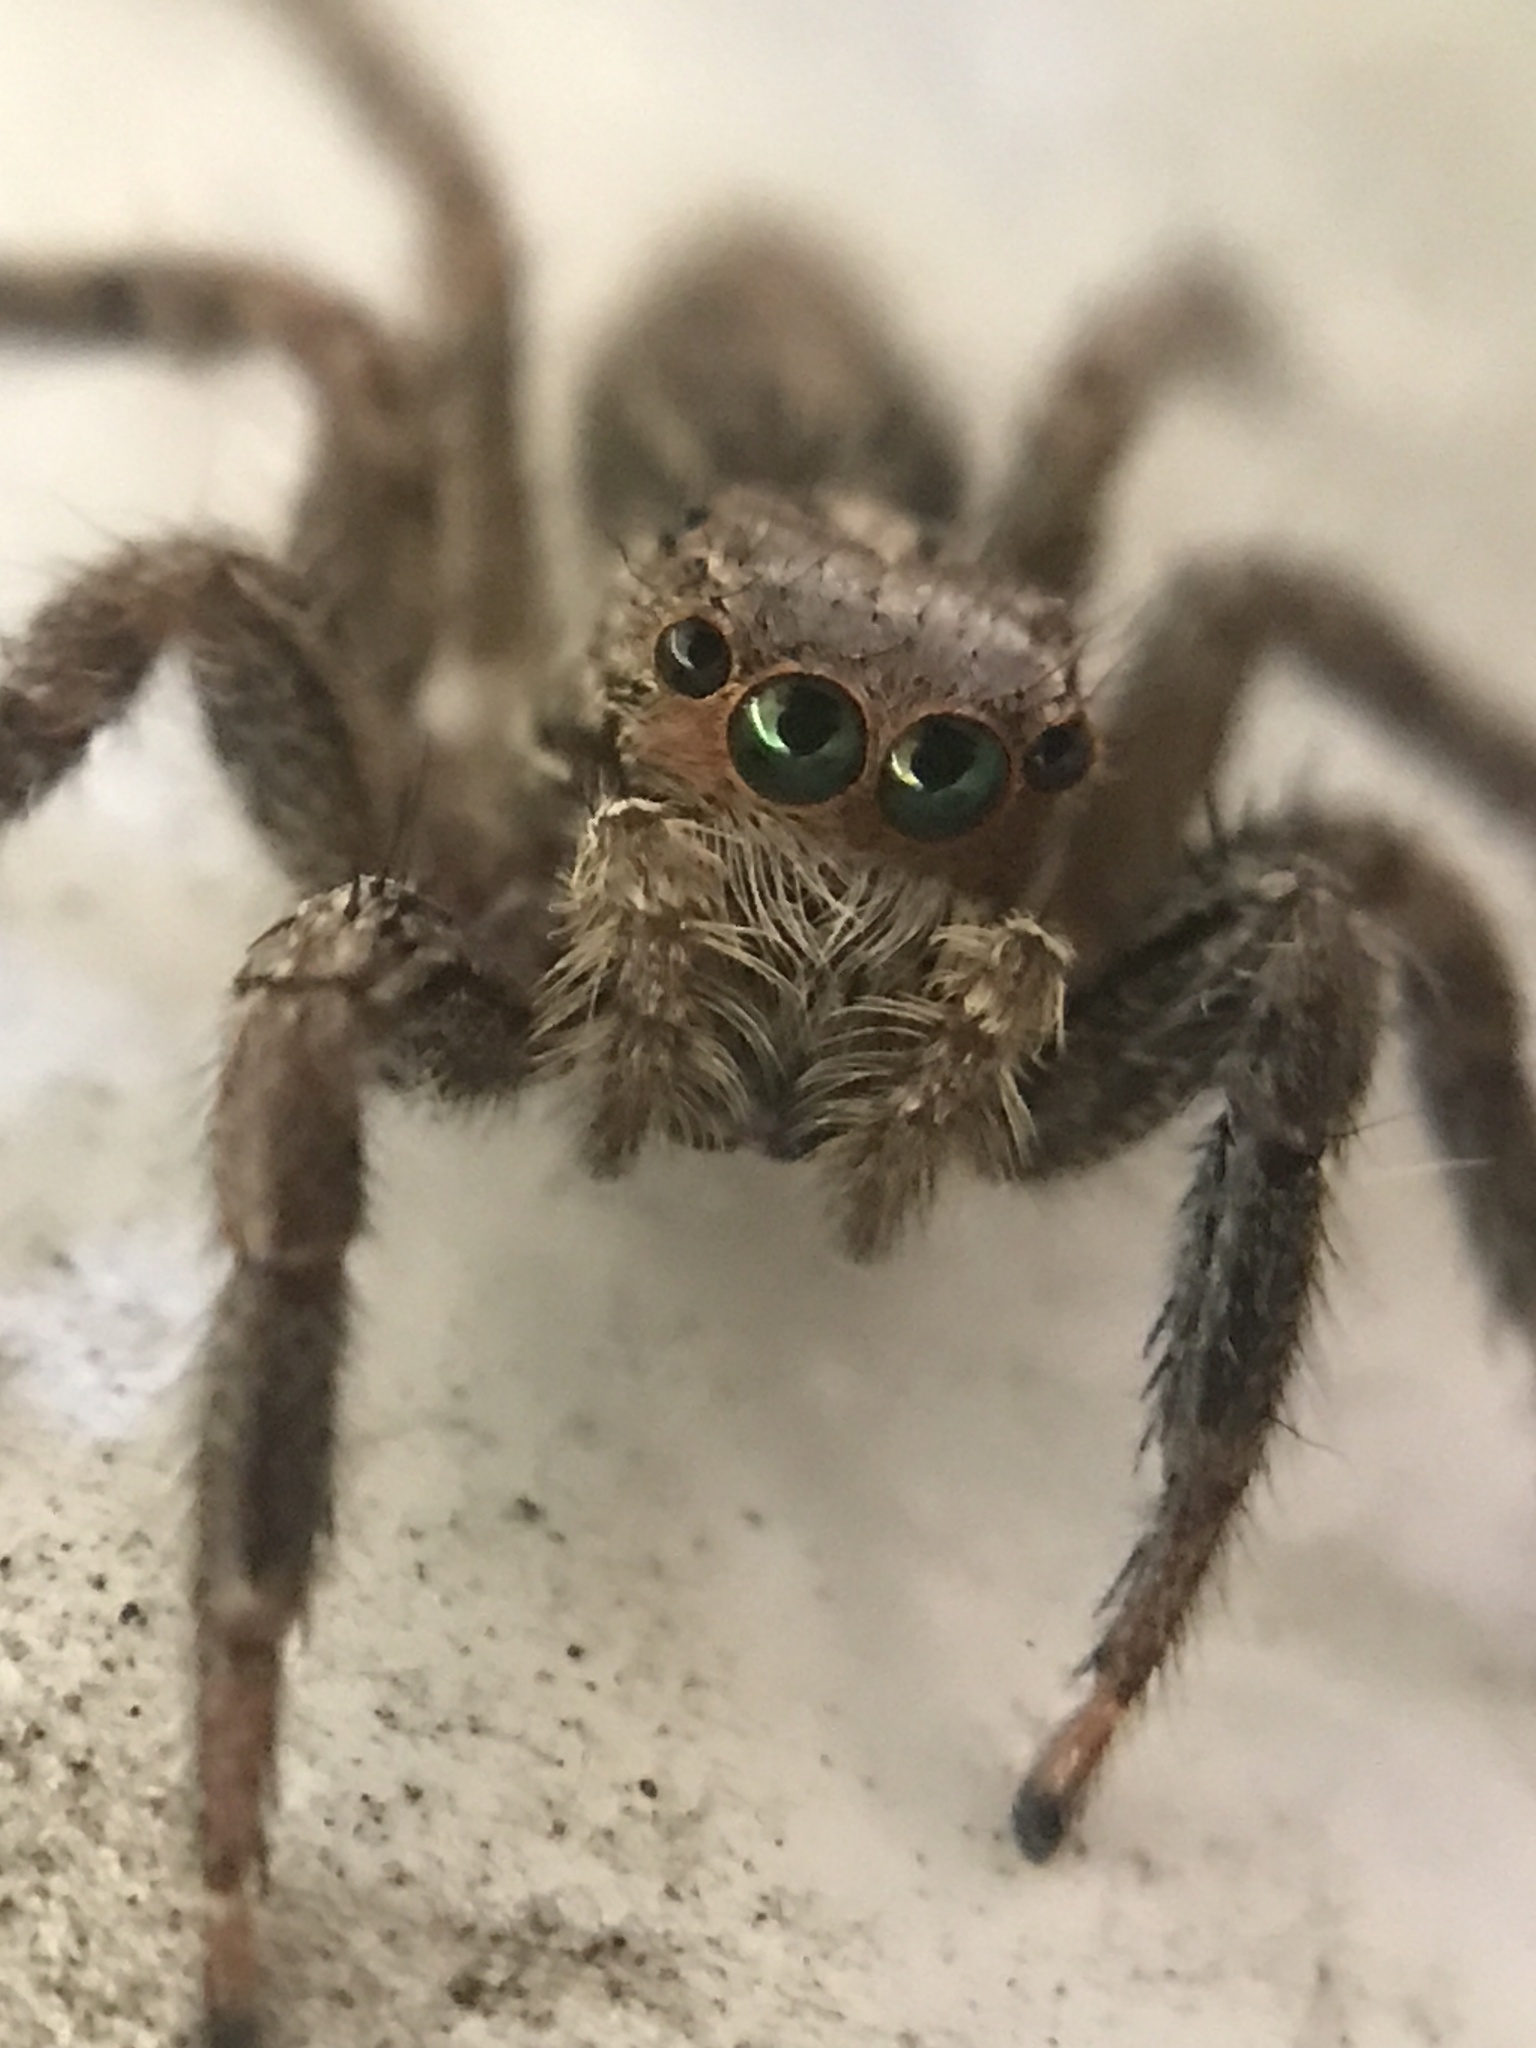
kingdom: Animalia
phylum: Arthropoda
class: Arachnida
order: Araneae
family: Salticidae
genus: Plexippus
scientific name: Plexippus paykulli
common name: Pantropical jumper
